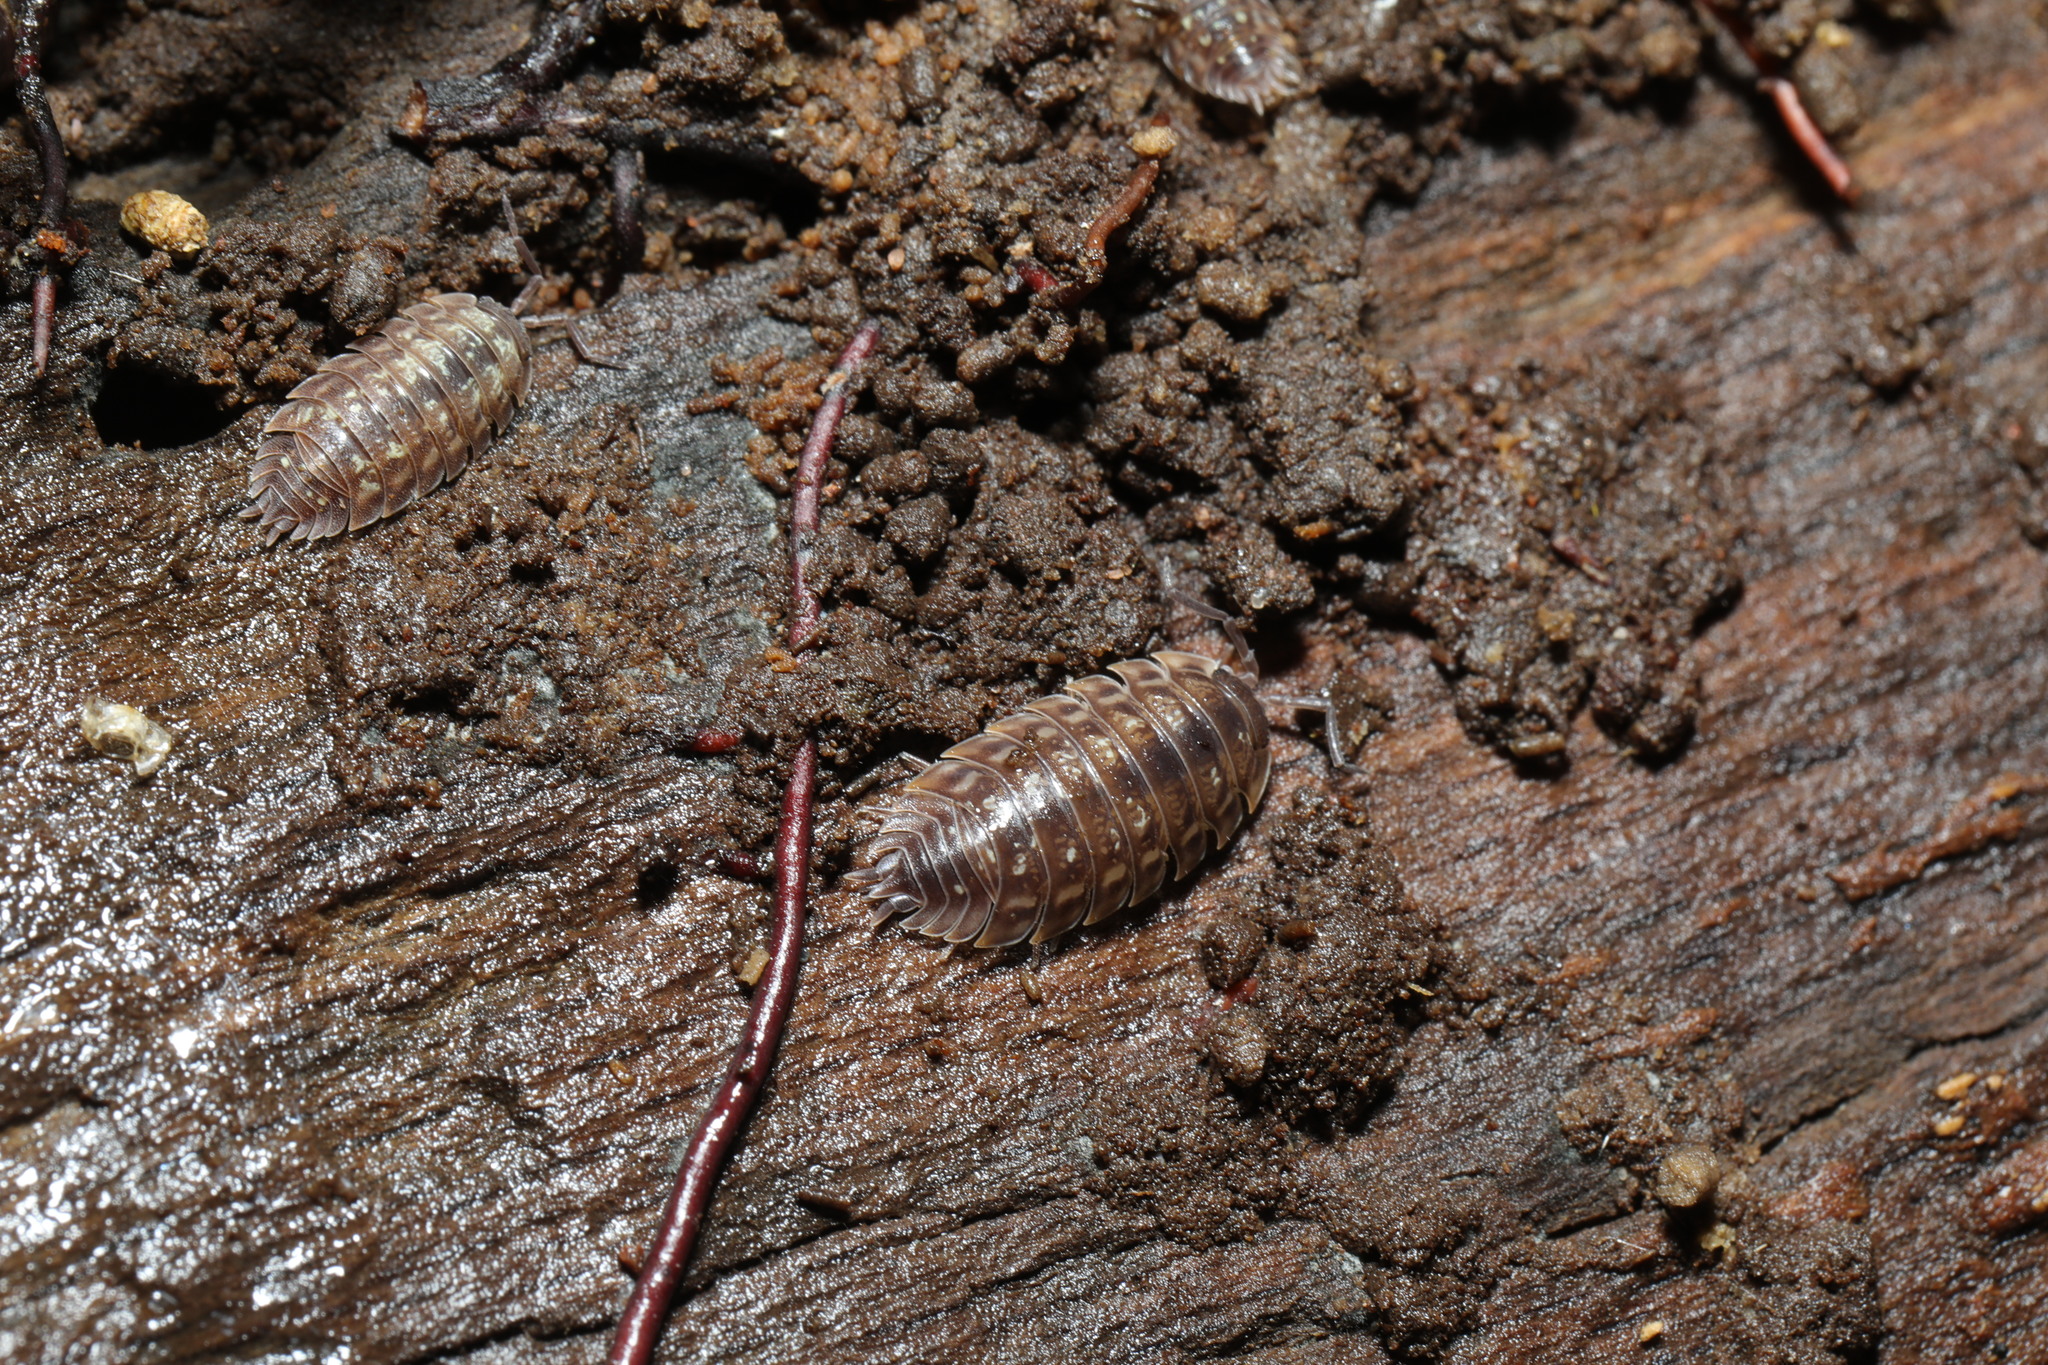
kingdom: Animalia
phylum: Arthropoda
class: Malacostraca
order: Isopoda
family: Oniscidae
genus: Oniscus
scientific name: Oniscus asellus
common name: Common shiny woodlouse
